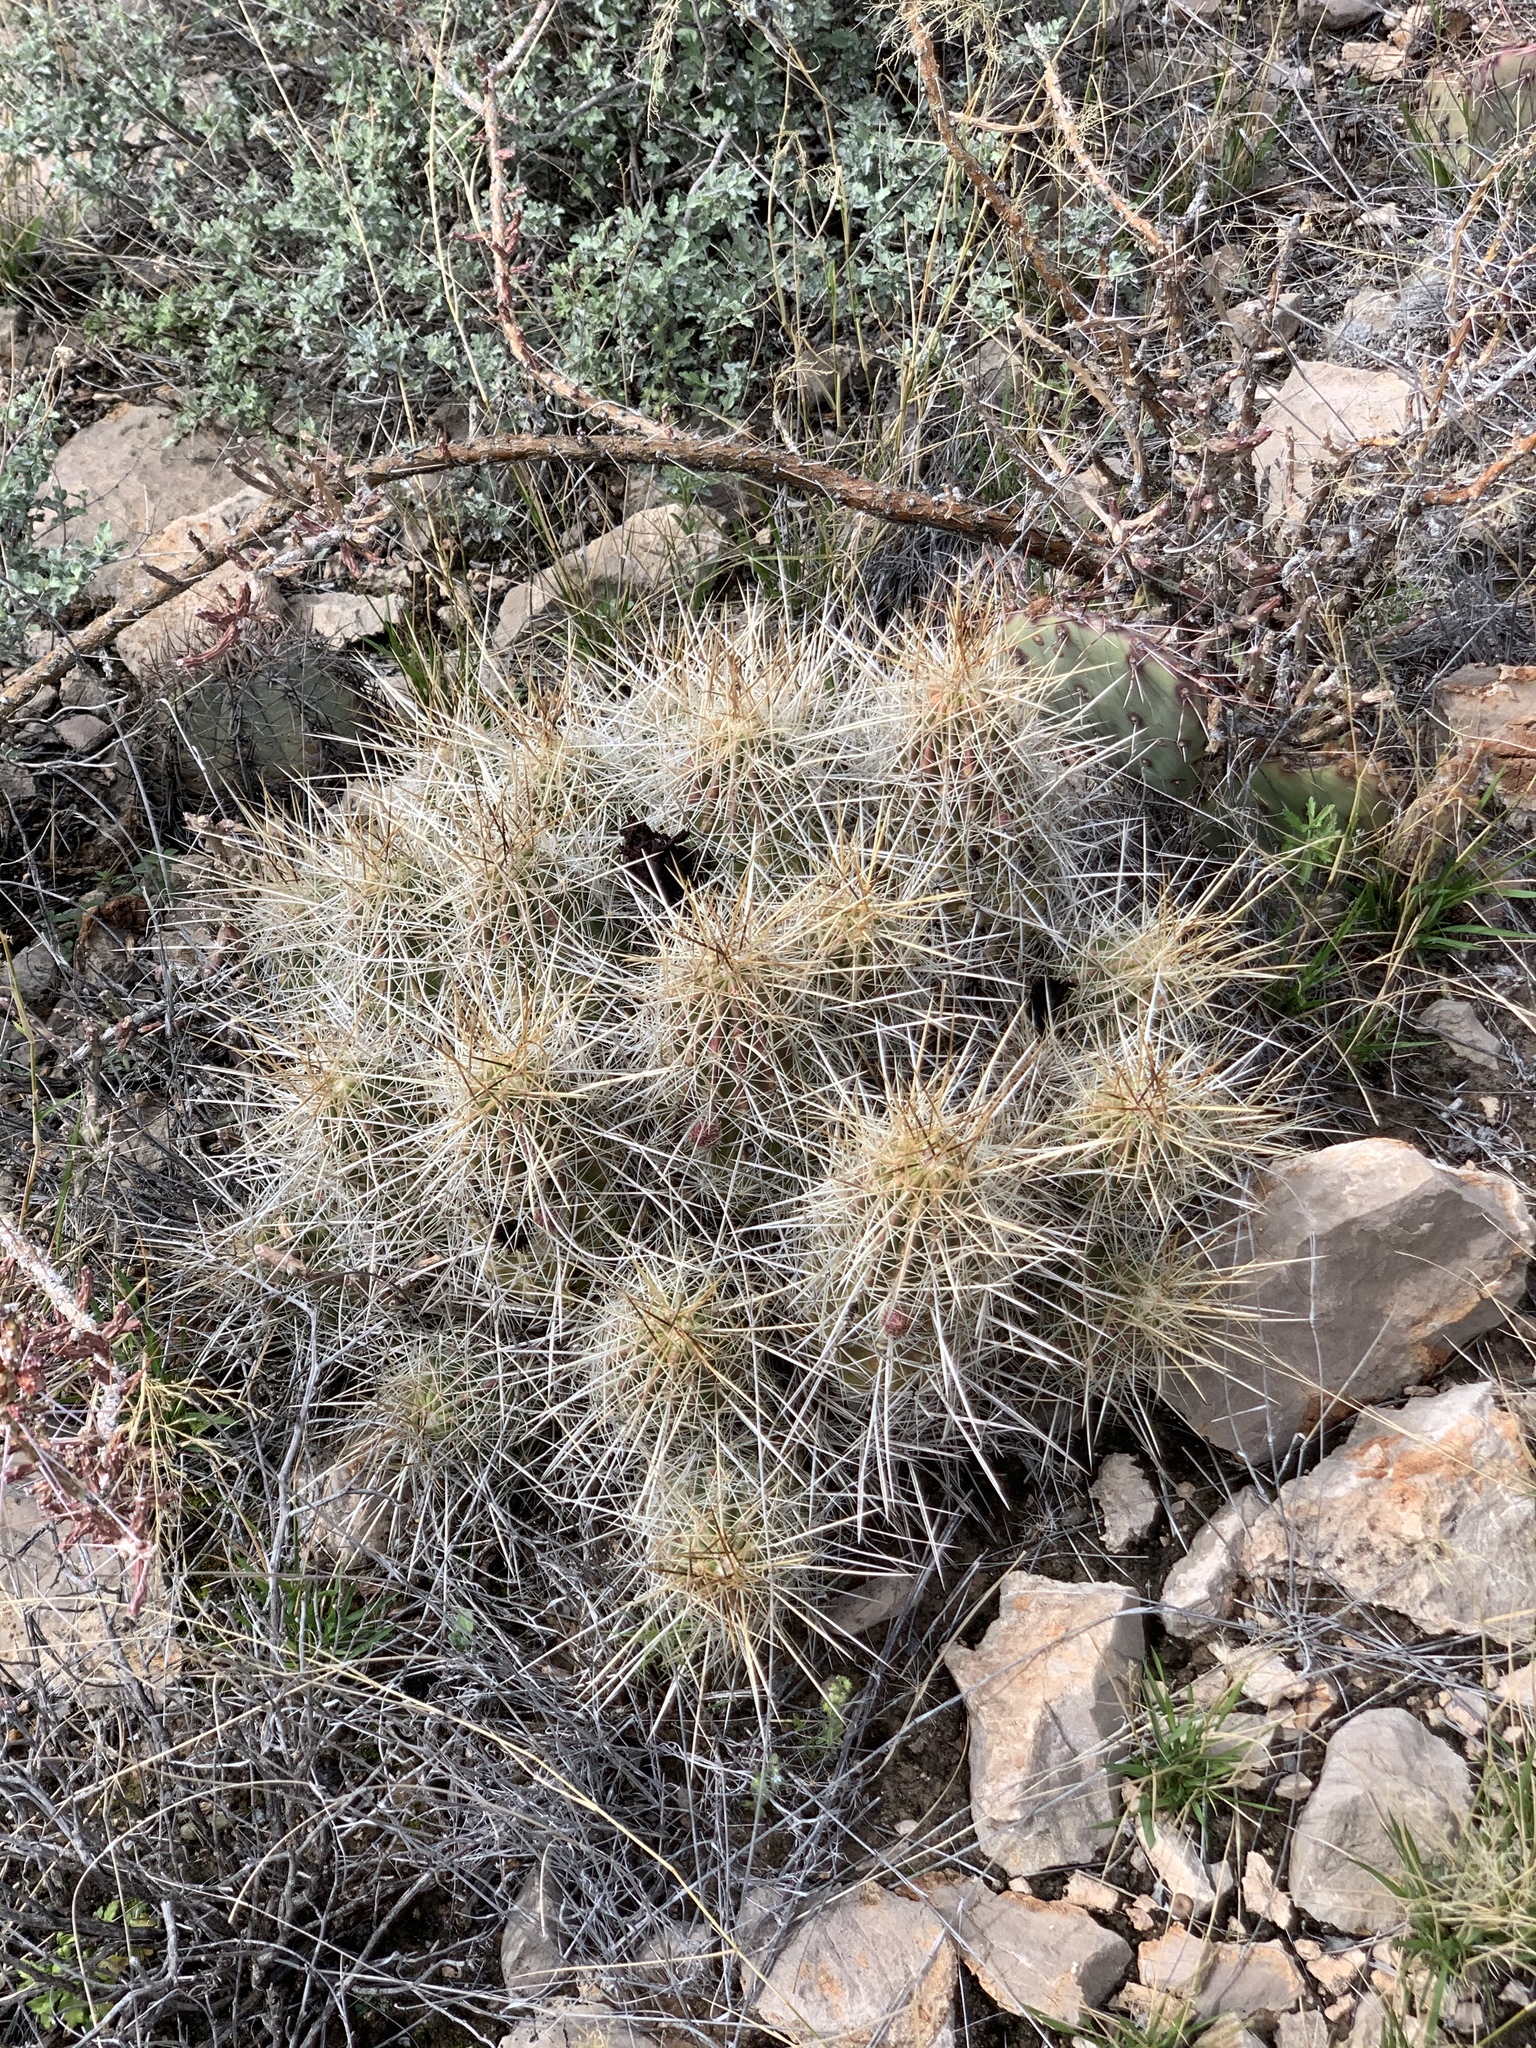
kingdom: Plantae
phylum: Tracheophyta
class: Magnoliopsida
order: Caryophyllales
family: Cactaceae
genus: Echinocereus
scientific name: Echinocereus stramineus
